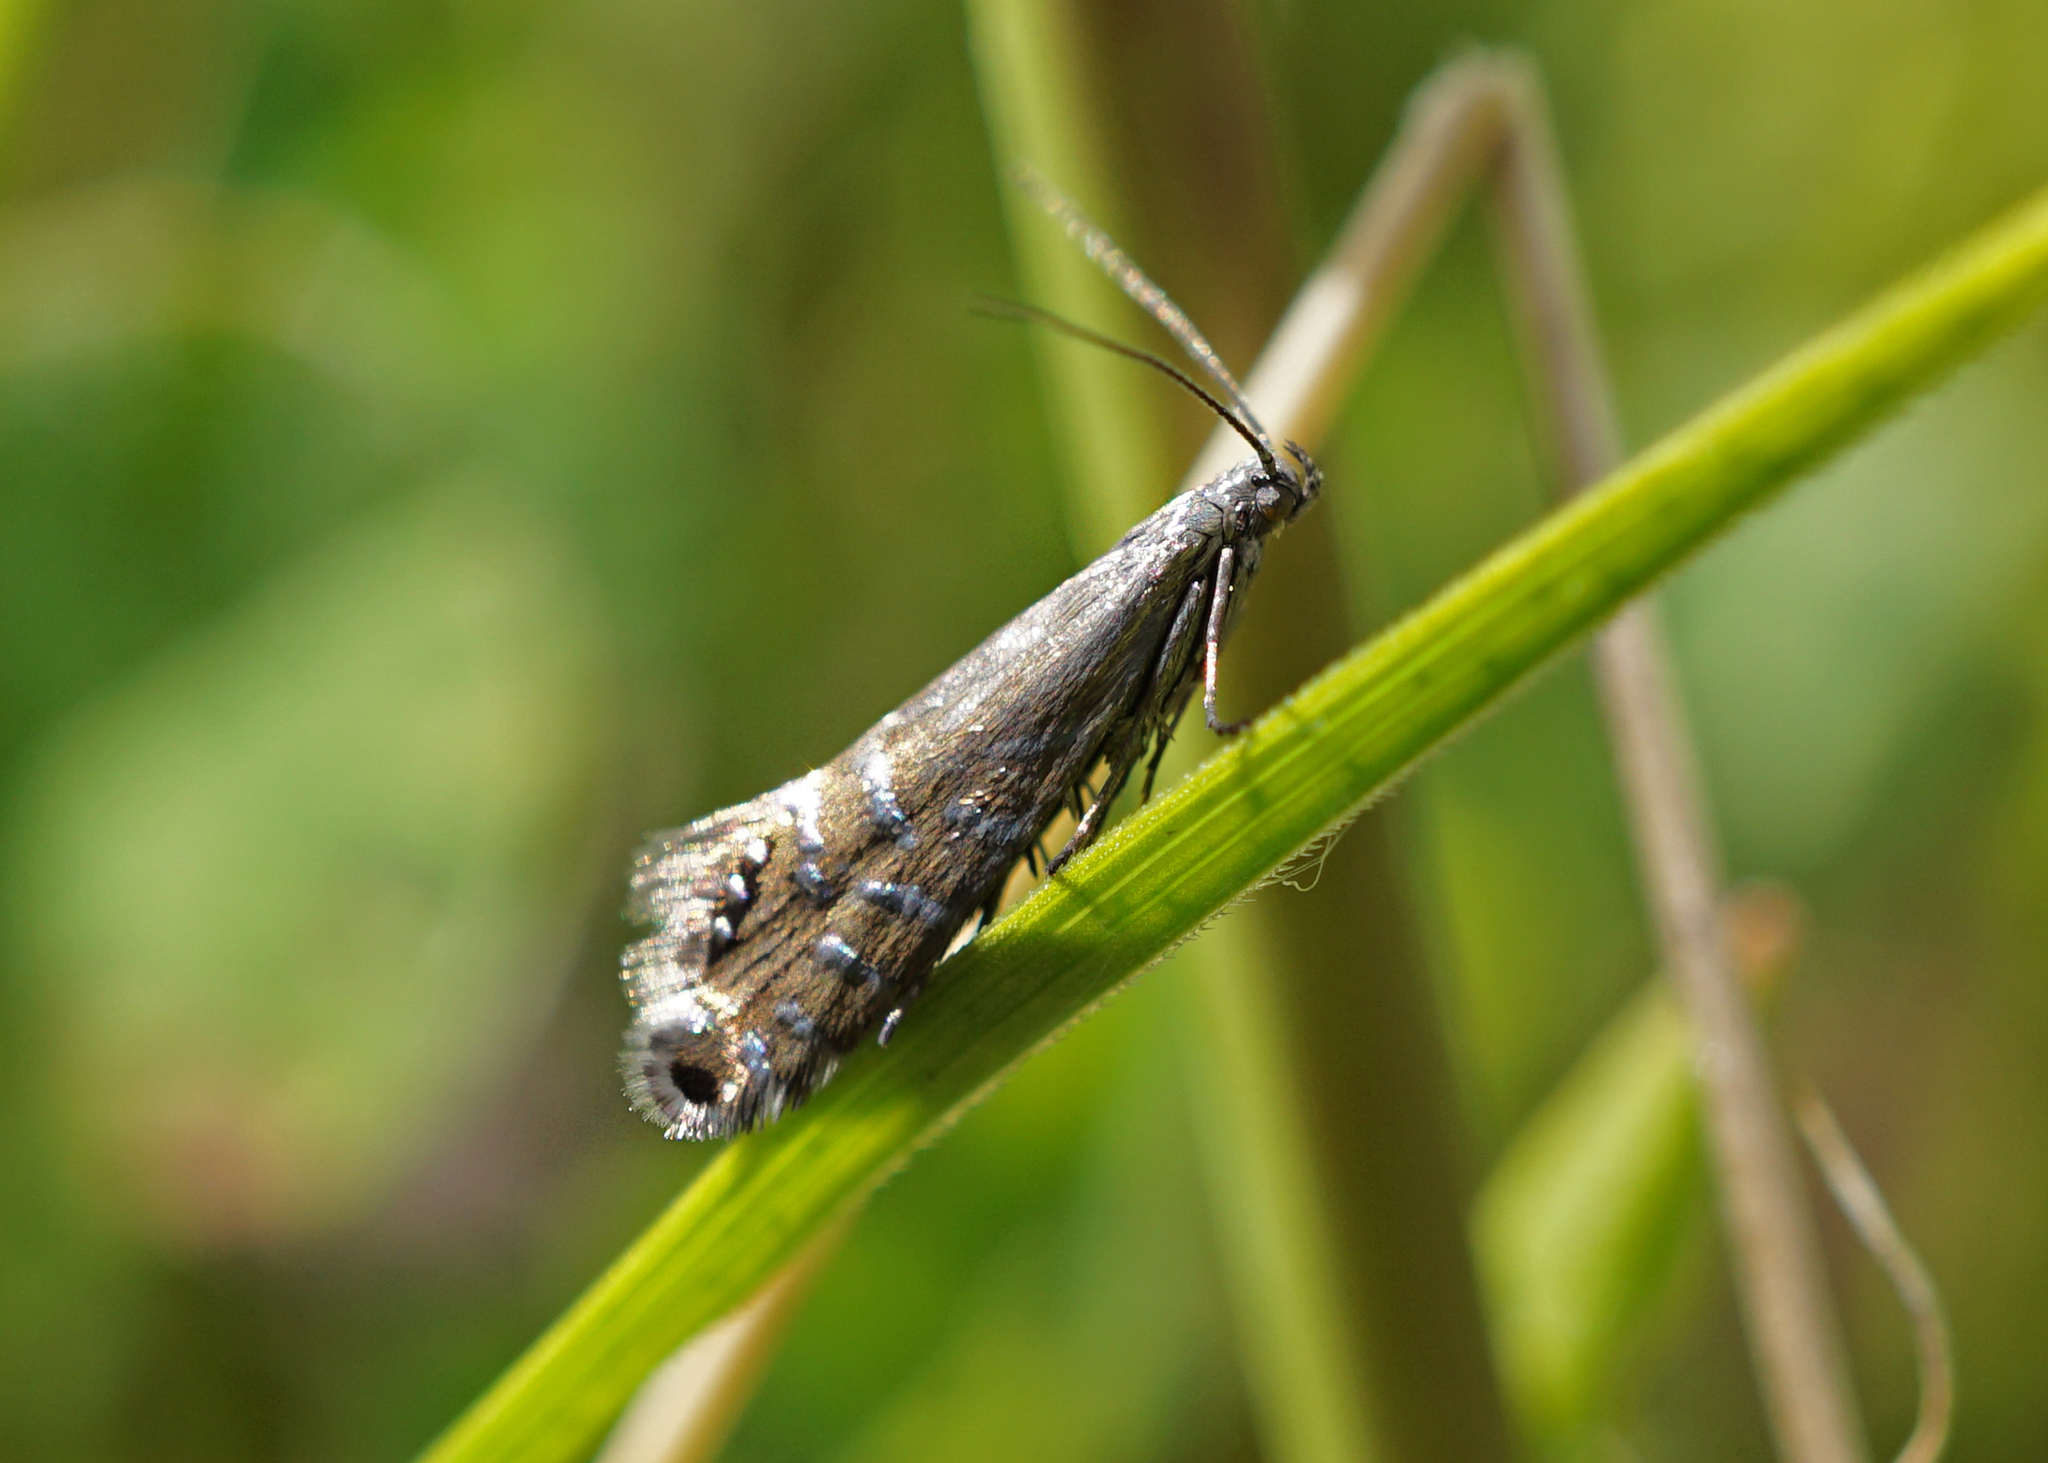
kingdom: Animalia
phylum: Arthropoda
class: Insecta
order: Lepidoptera
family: Glyphipterigidae
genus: Glyphipterix
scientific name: Glyphipterix thrasonella
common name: Speckled fanner
